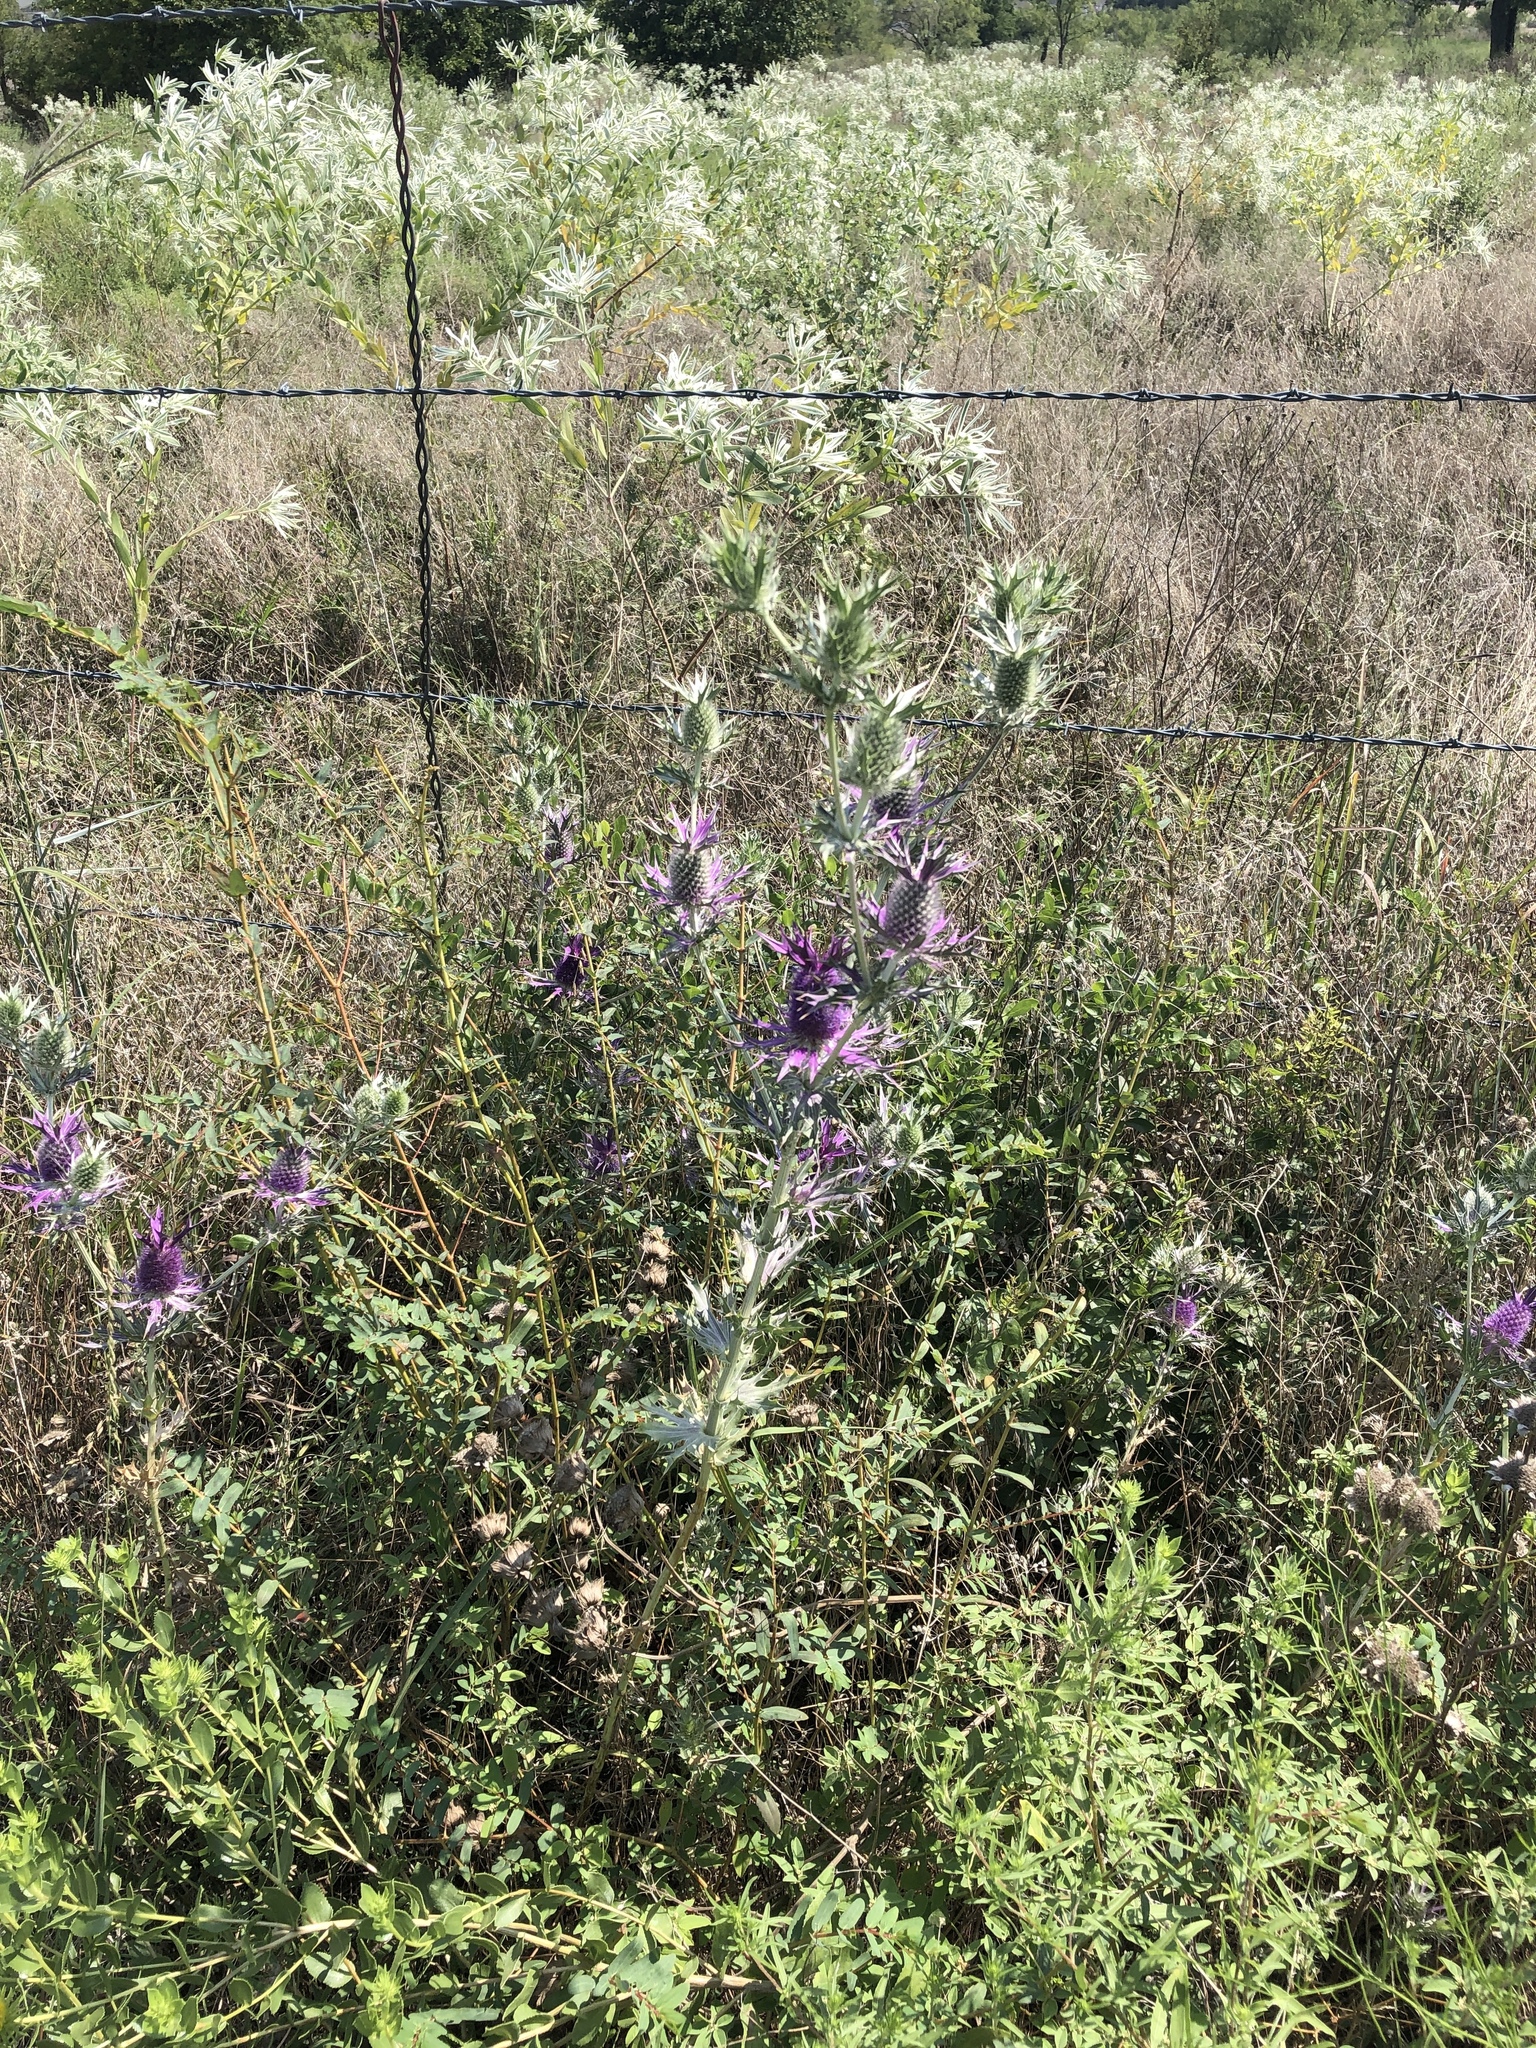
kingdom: Plantae
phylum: Tracheophyta
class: Magnoliopsida
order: Apiales
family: Apiaceae
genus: Eryngium
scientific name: Eryngium leavenworthii
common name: Leavenworth's eryngo
